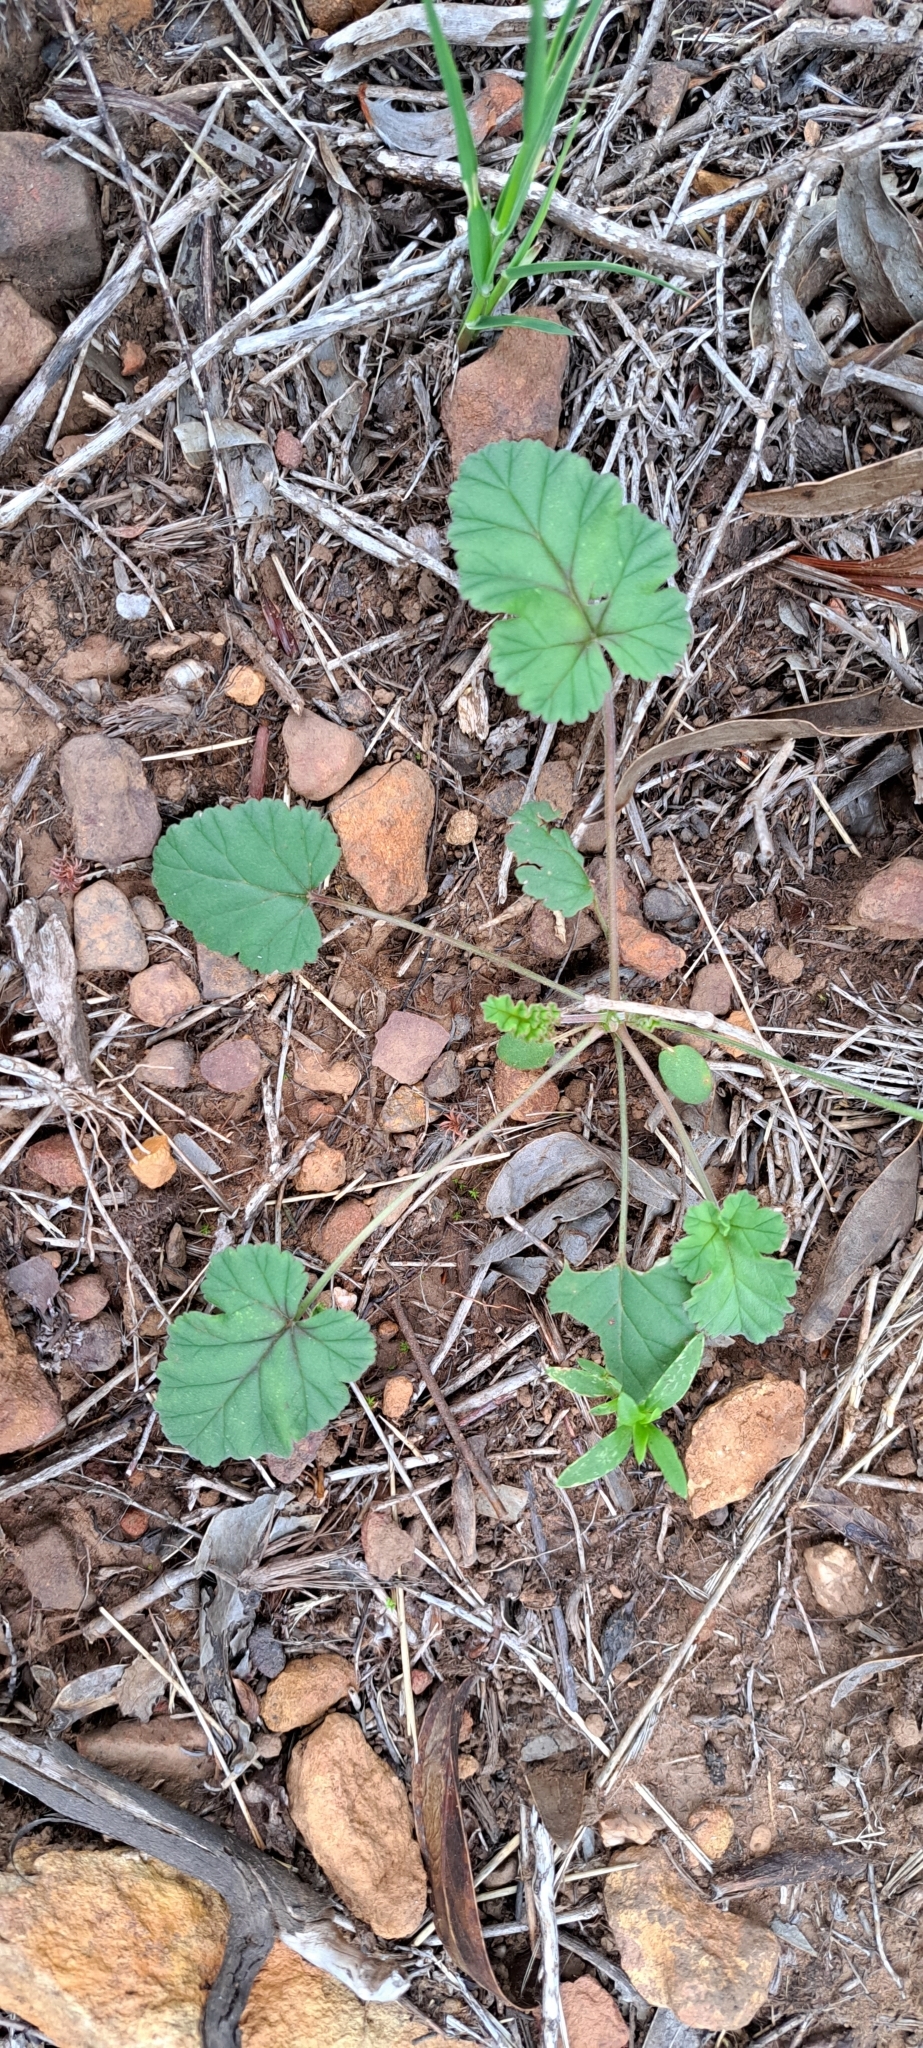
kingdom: Plantae
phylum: Tracheophyta
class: Magnoliopsida
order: Geraniales
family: Geraniaceae
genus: Pelargonium
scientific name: Pelargonium candicans
